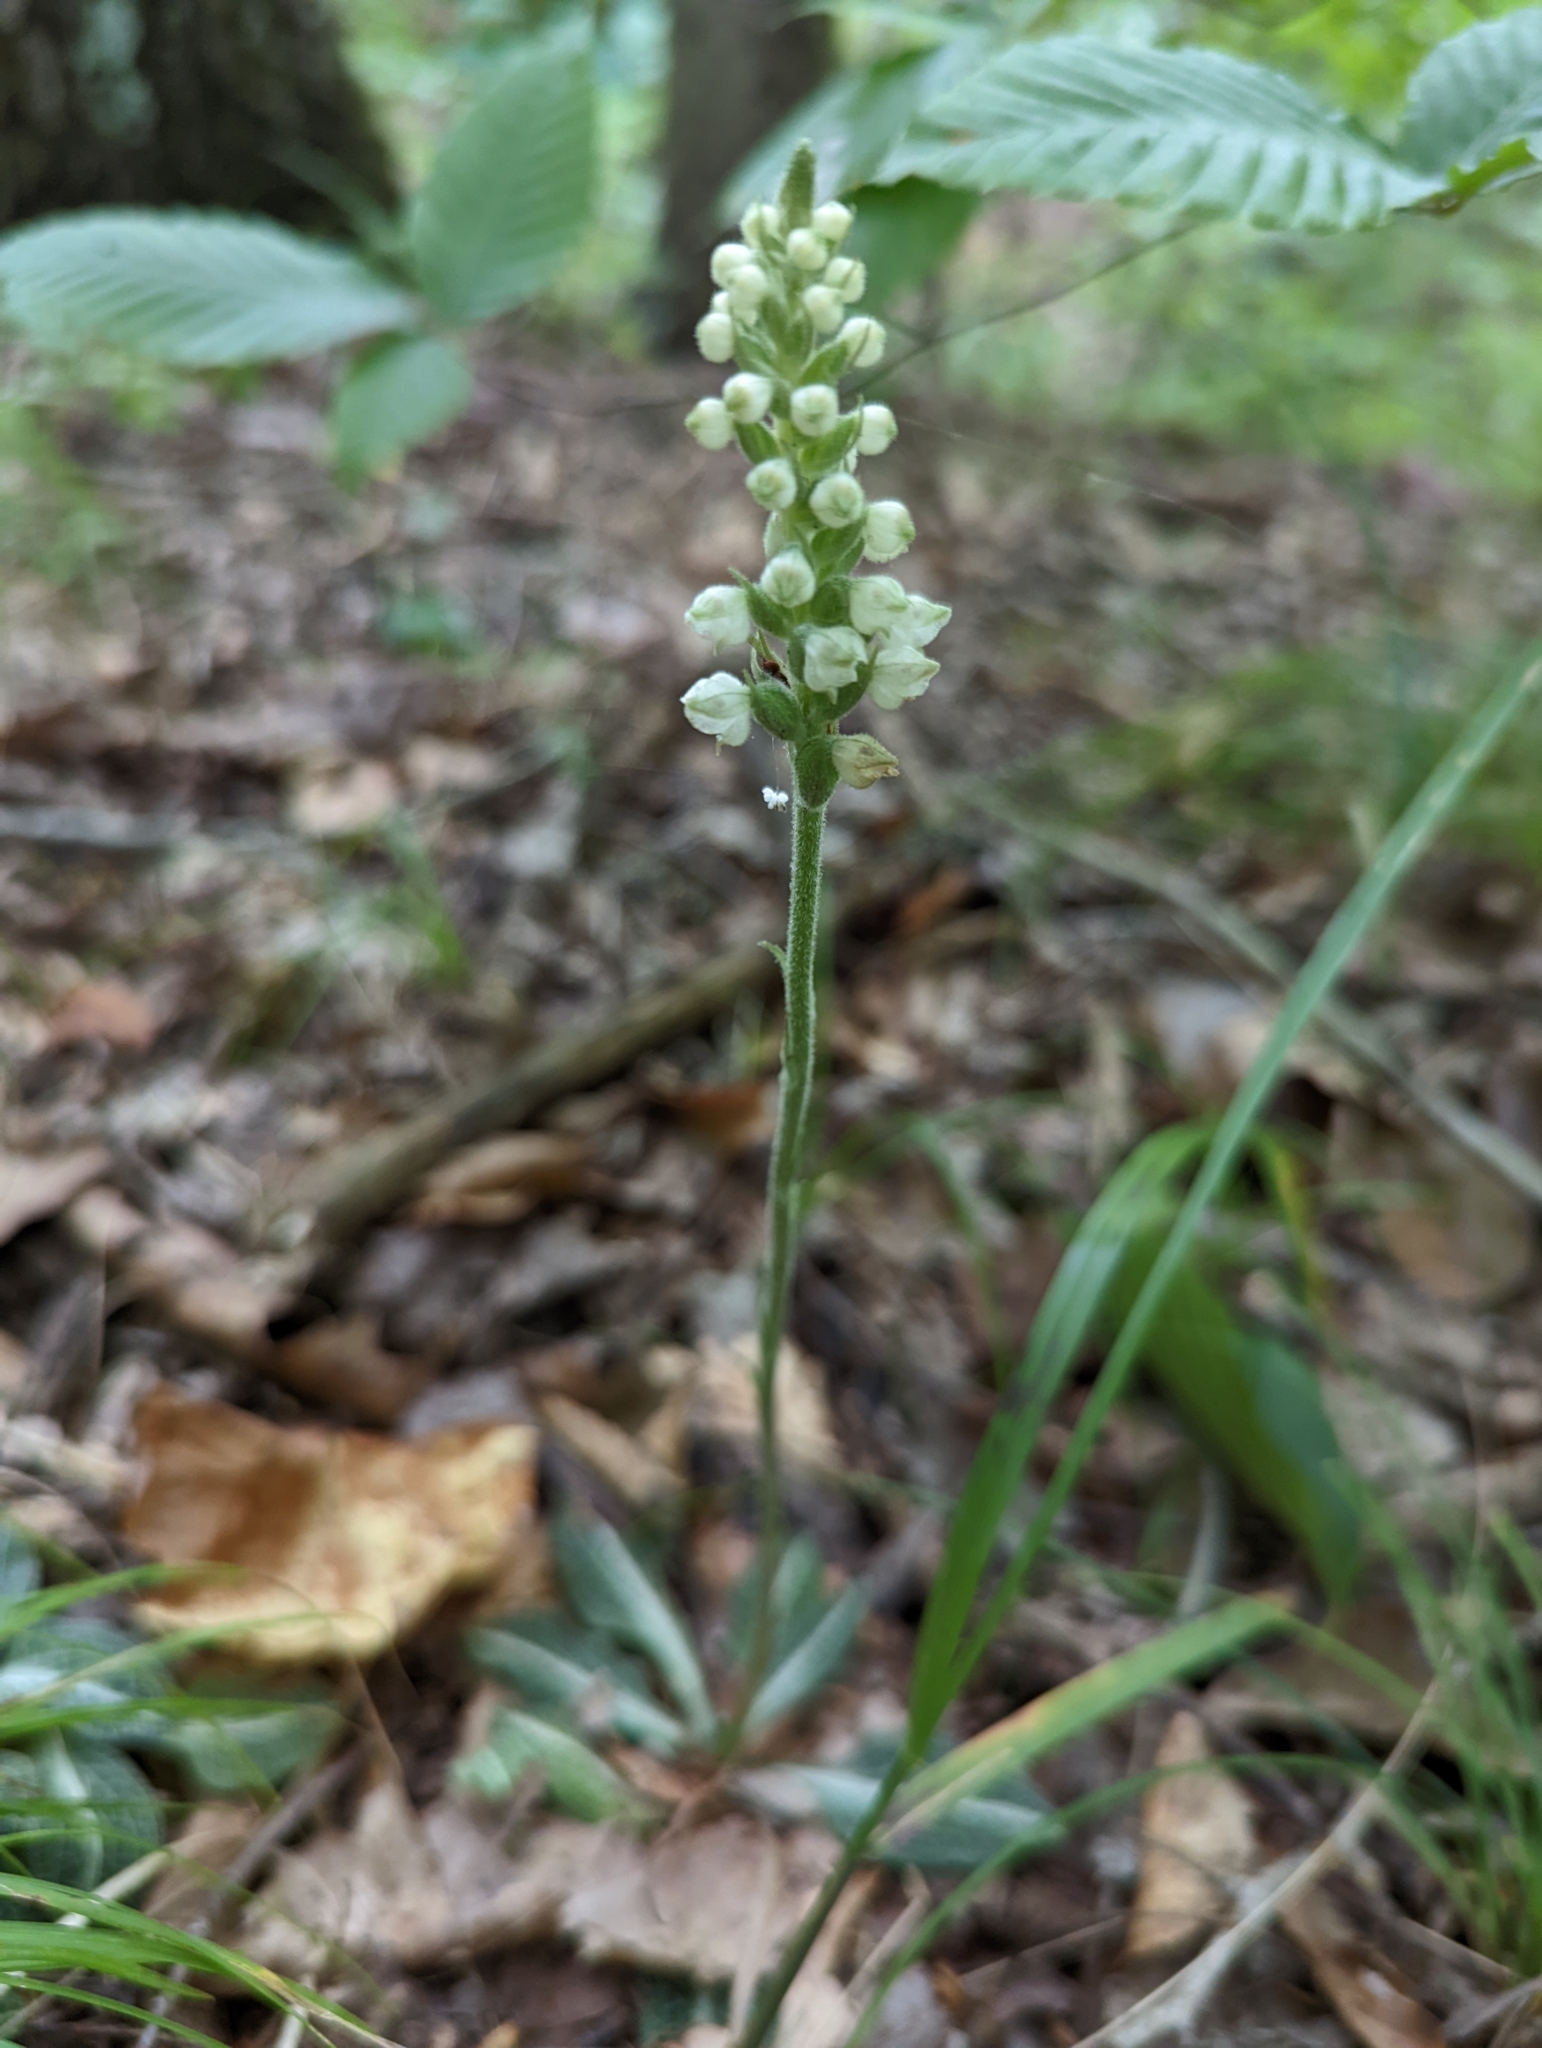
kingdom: Plantae
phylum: Tracheophyta
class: Liliopsida
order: Asparagales
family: Orchidaceae
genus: Goodyera
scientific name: Goodyera pubescens
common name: Downy rattlesnake-plantain
